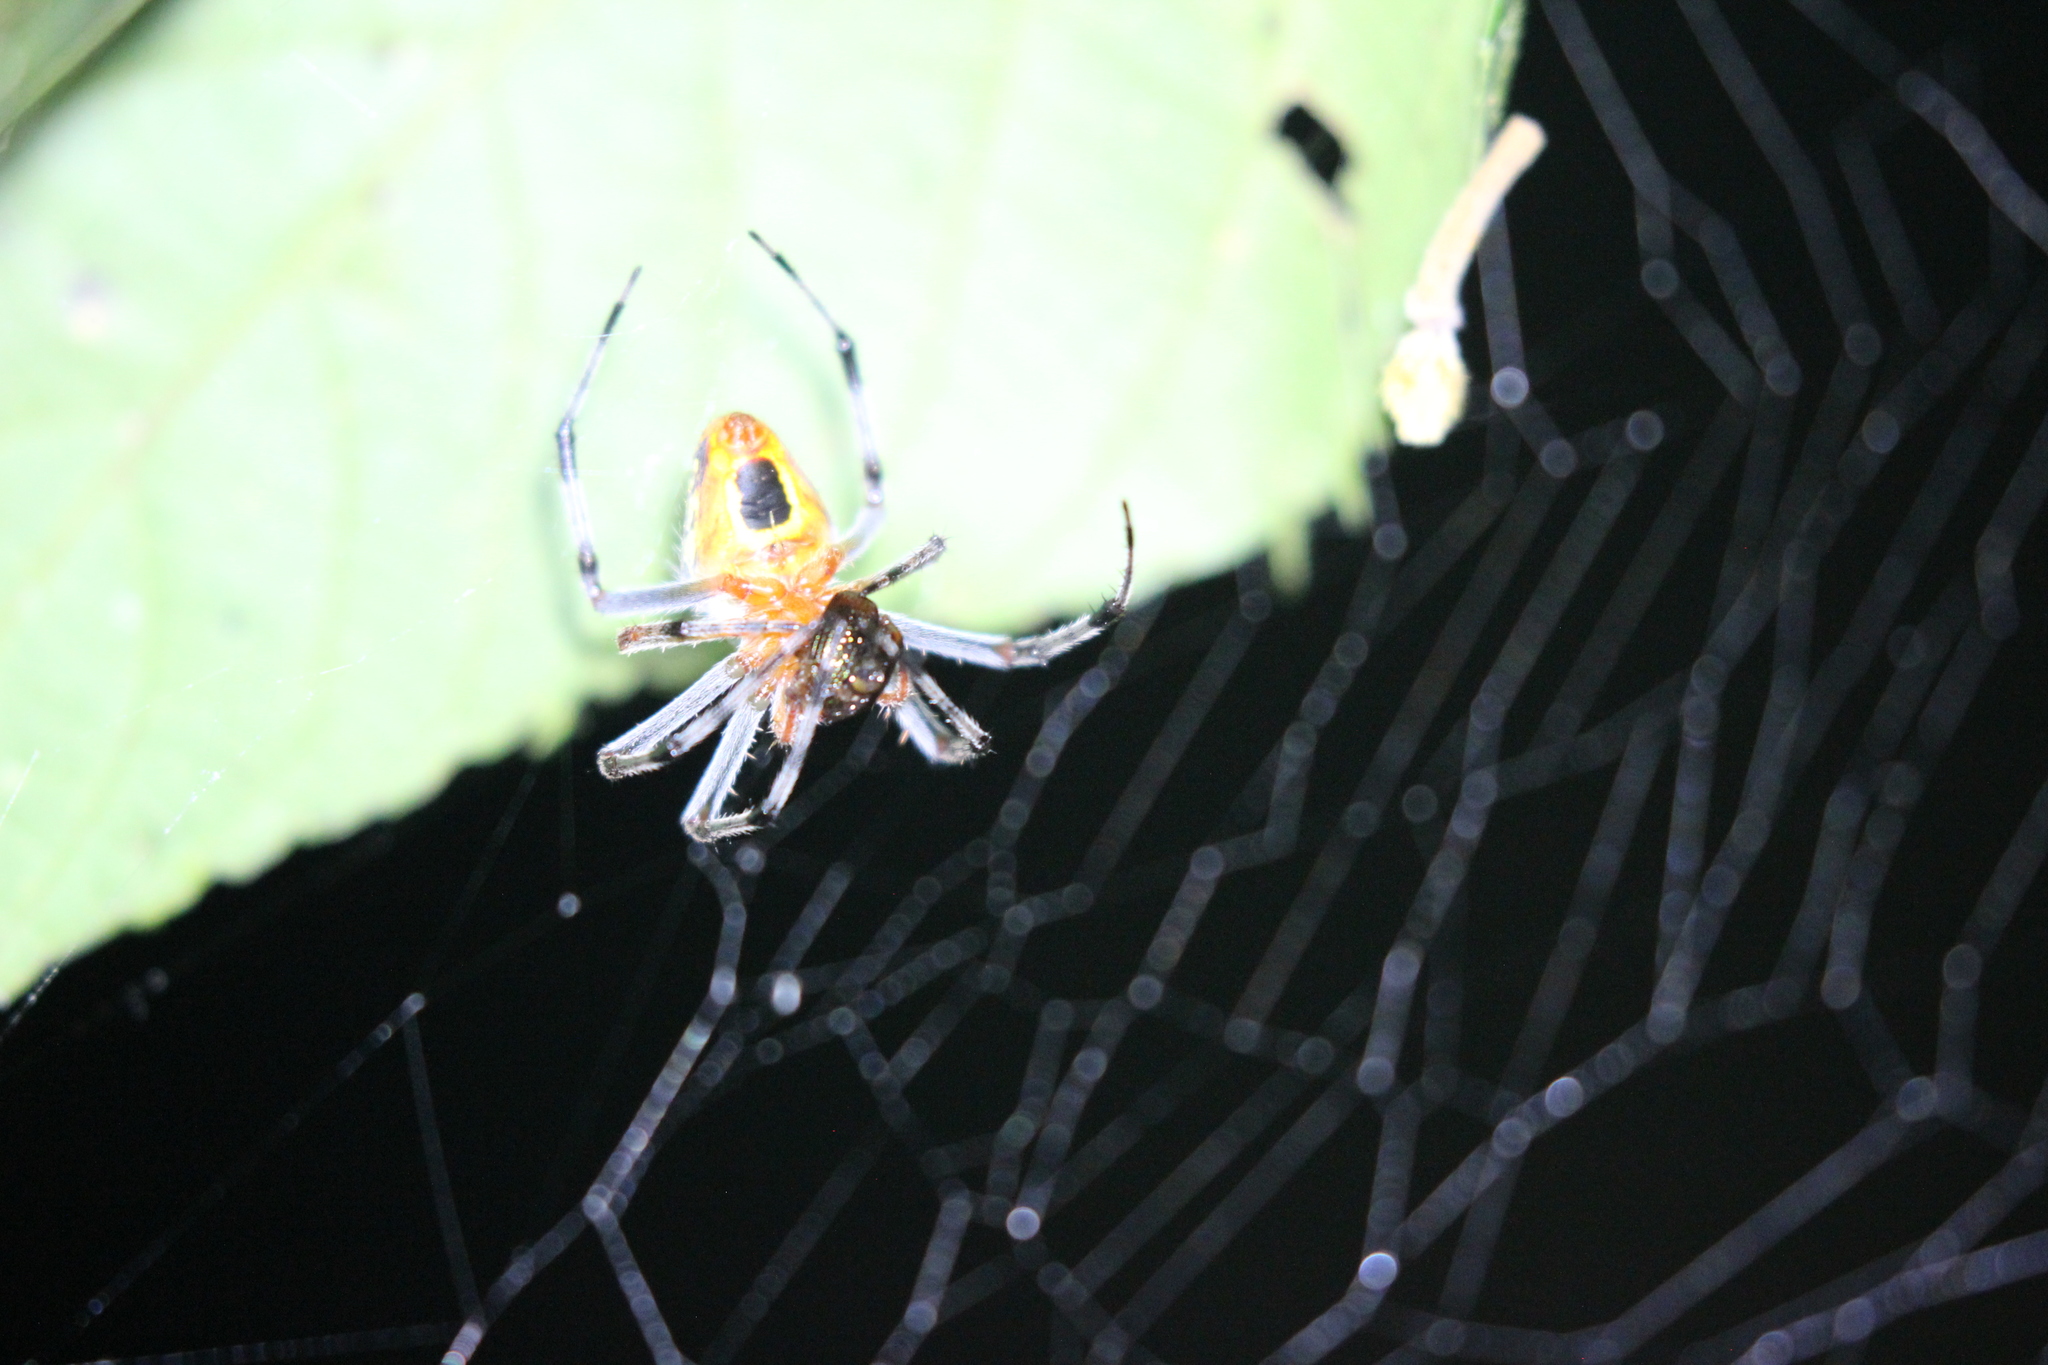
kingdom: Animalia
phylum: Arthropoda
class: Arachnida
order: Araneae
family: Araneidae
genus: Eriophora
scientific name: Eriophora nephiloides
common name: Orb weavers
